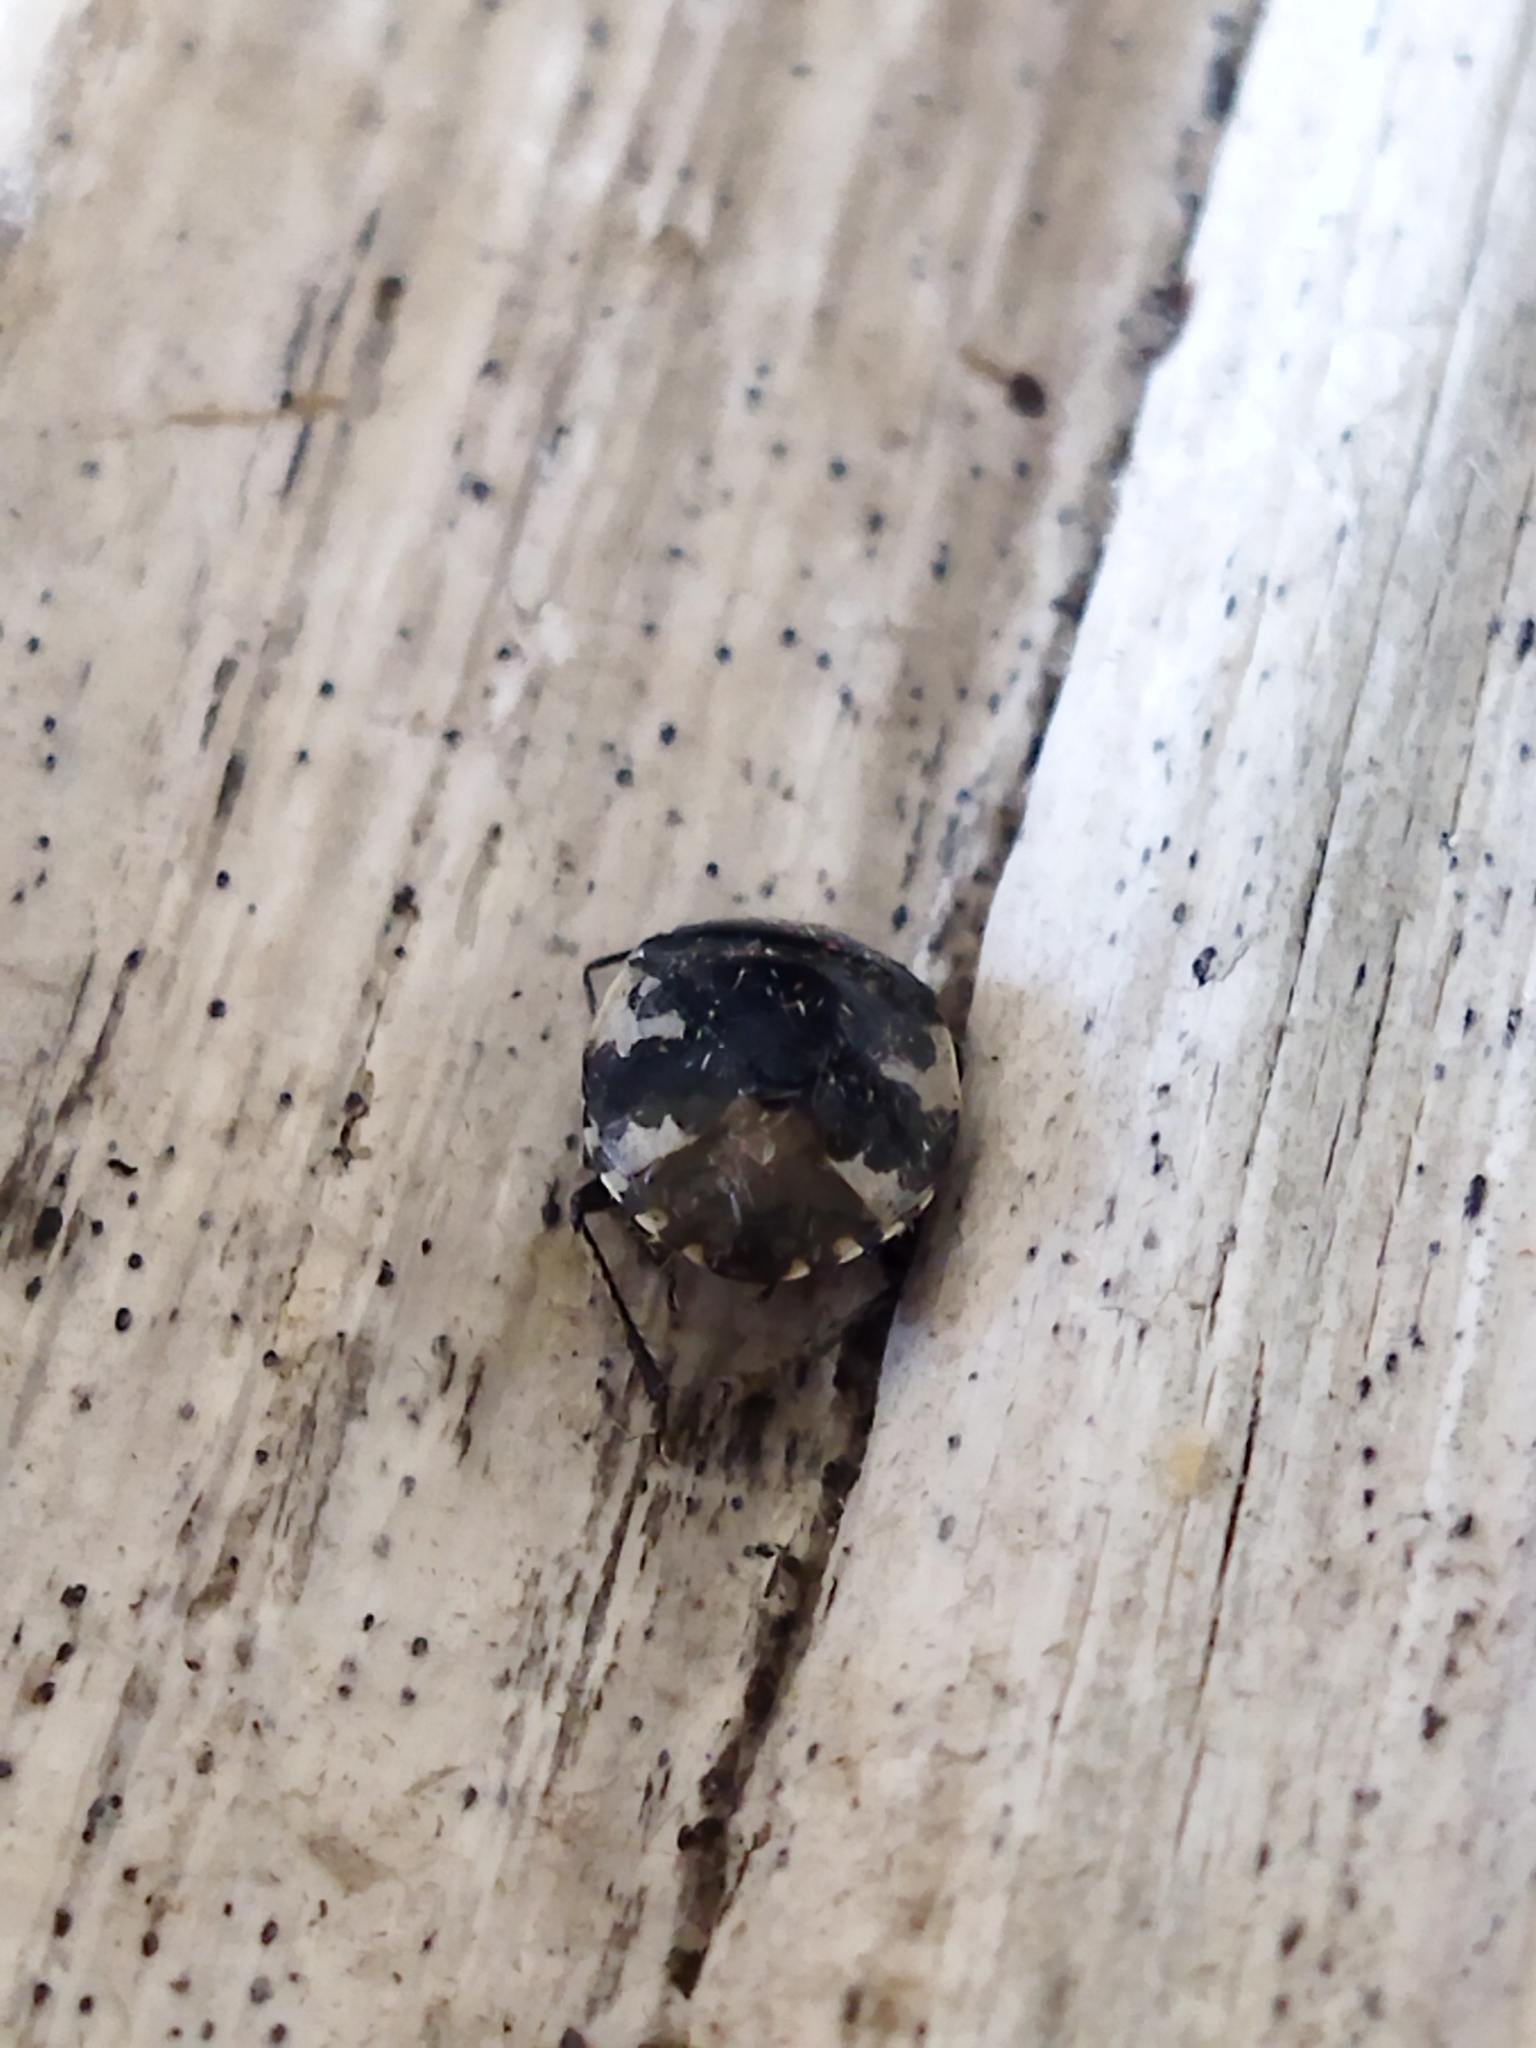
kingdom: Animalia
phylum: Arthropoda
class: Insecta
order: Hemiptera
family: Cydnidae
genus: Tritomegas
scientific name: Tritomegas bicolor
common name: Pied shieldbug
